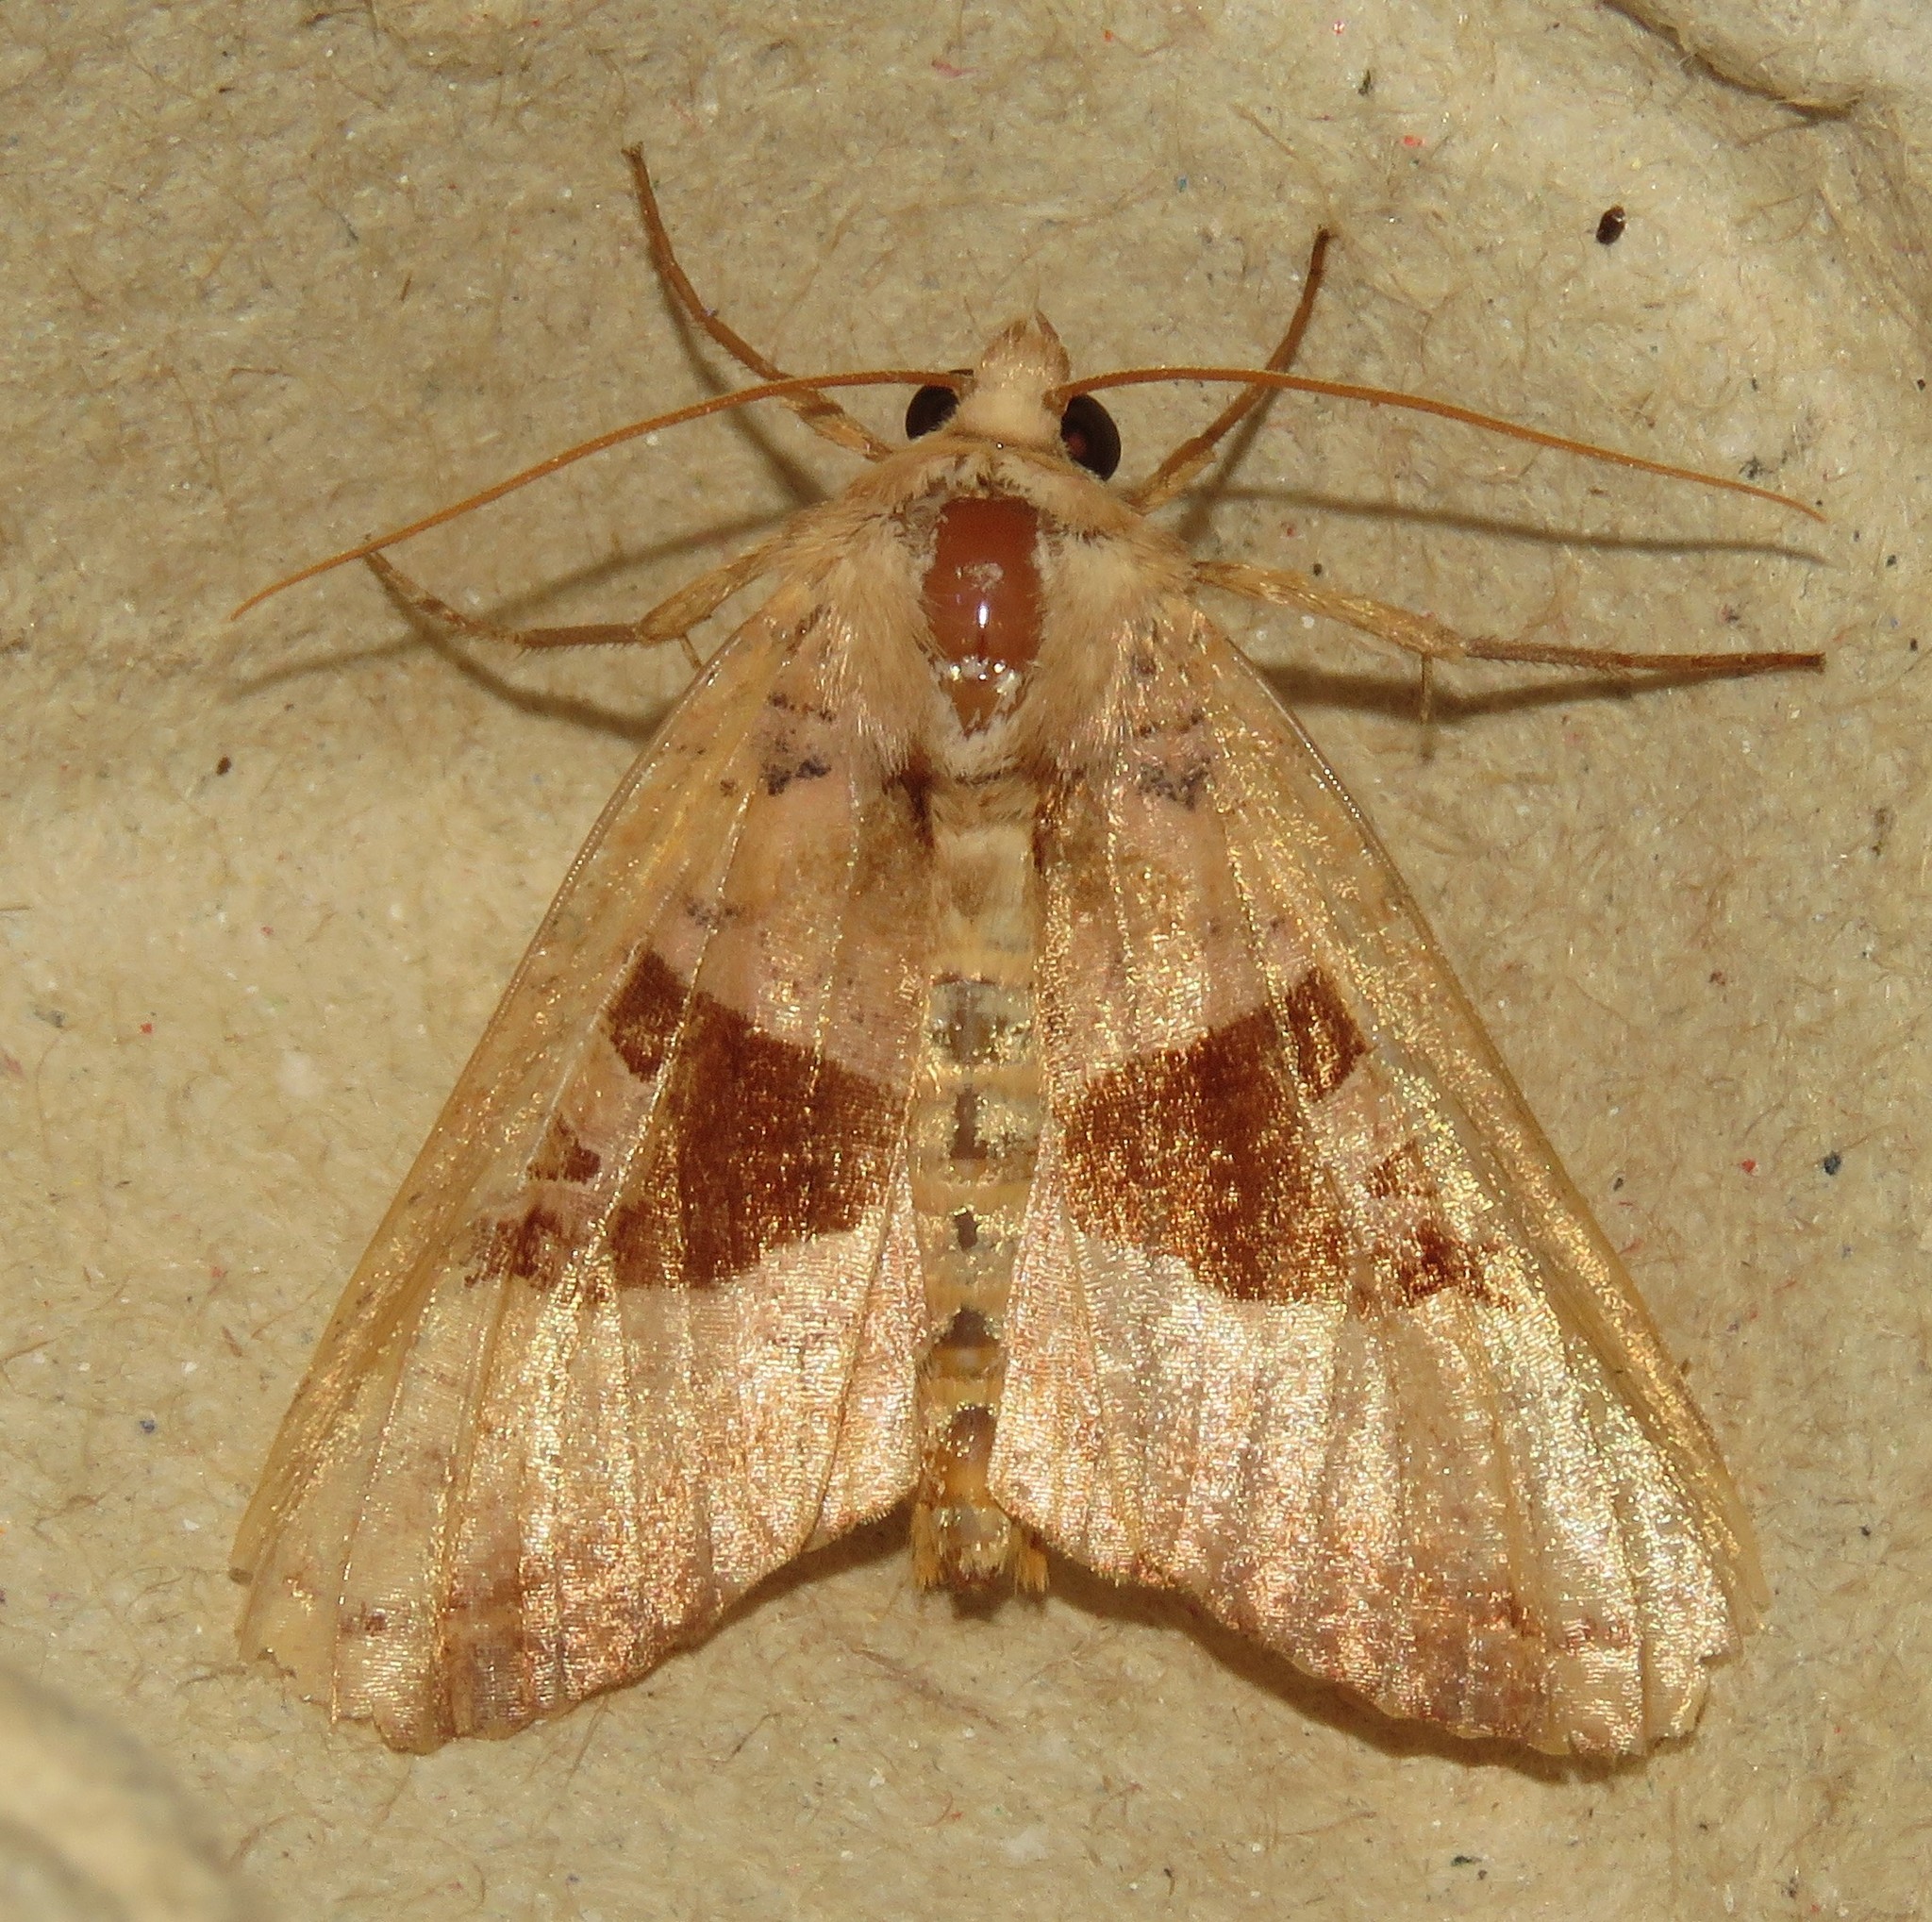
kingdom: Animalia
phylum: Arthropoda
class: Insecta
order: Lepidoptera
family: Noctuidae
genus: Phlogophora
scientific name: Phlogophora periculosa
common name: Brown angle shades
